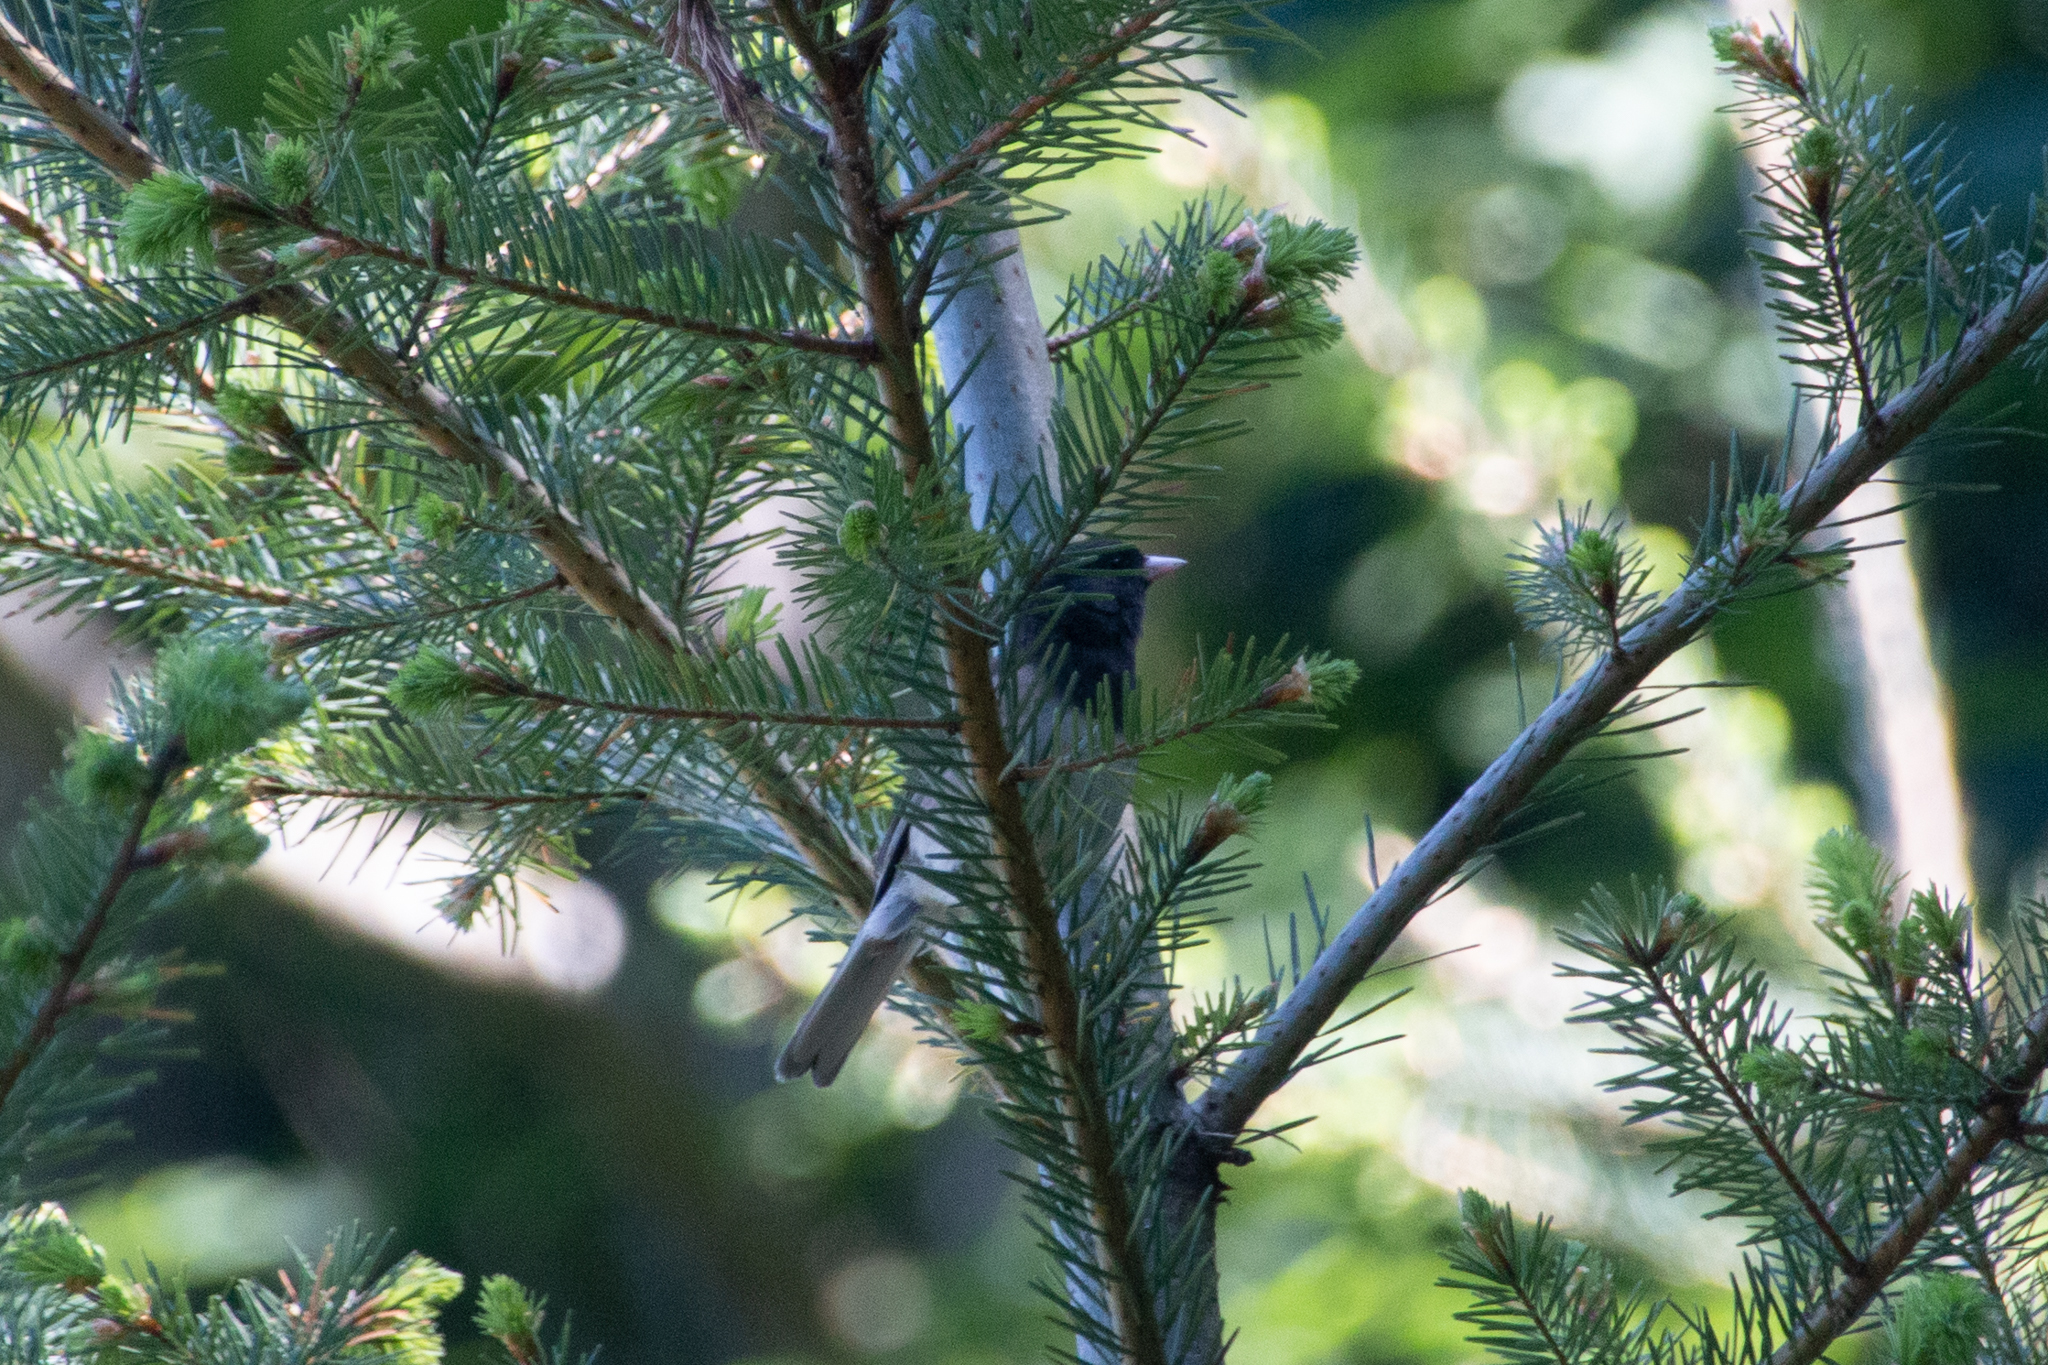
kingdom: Animalia
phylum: Chordata
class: Aves
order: Passeriformes
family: Passerellidae
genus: Junco
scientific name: Junco hyemalis
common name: Dark-eyed junco
